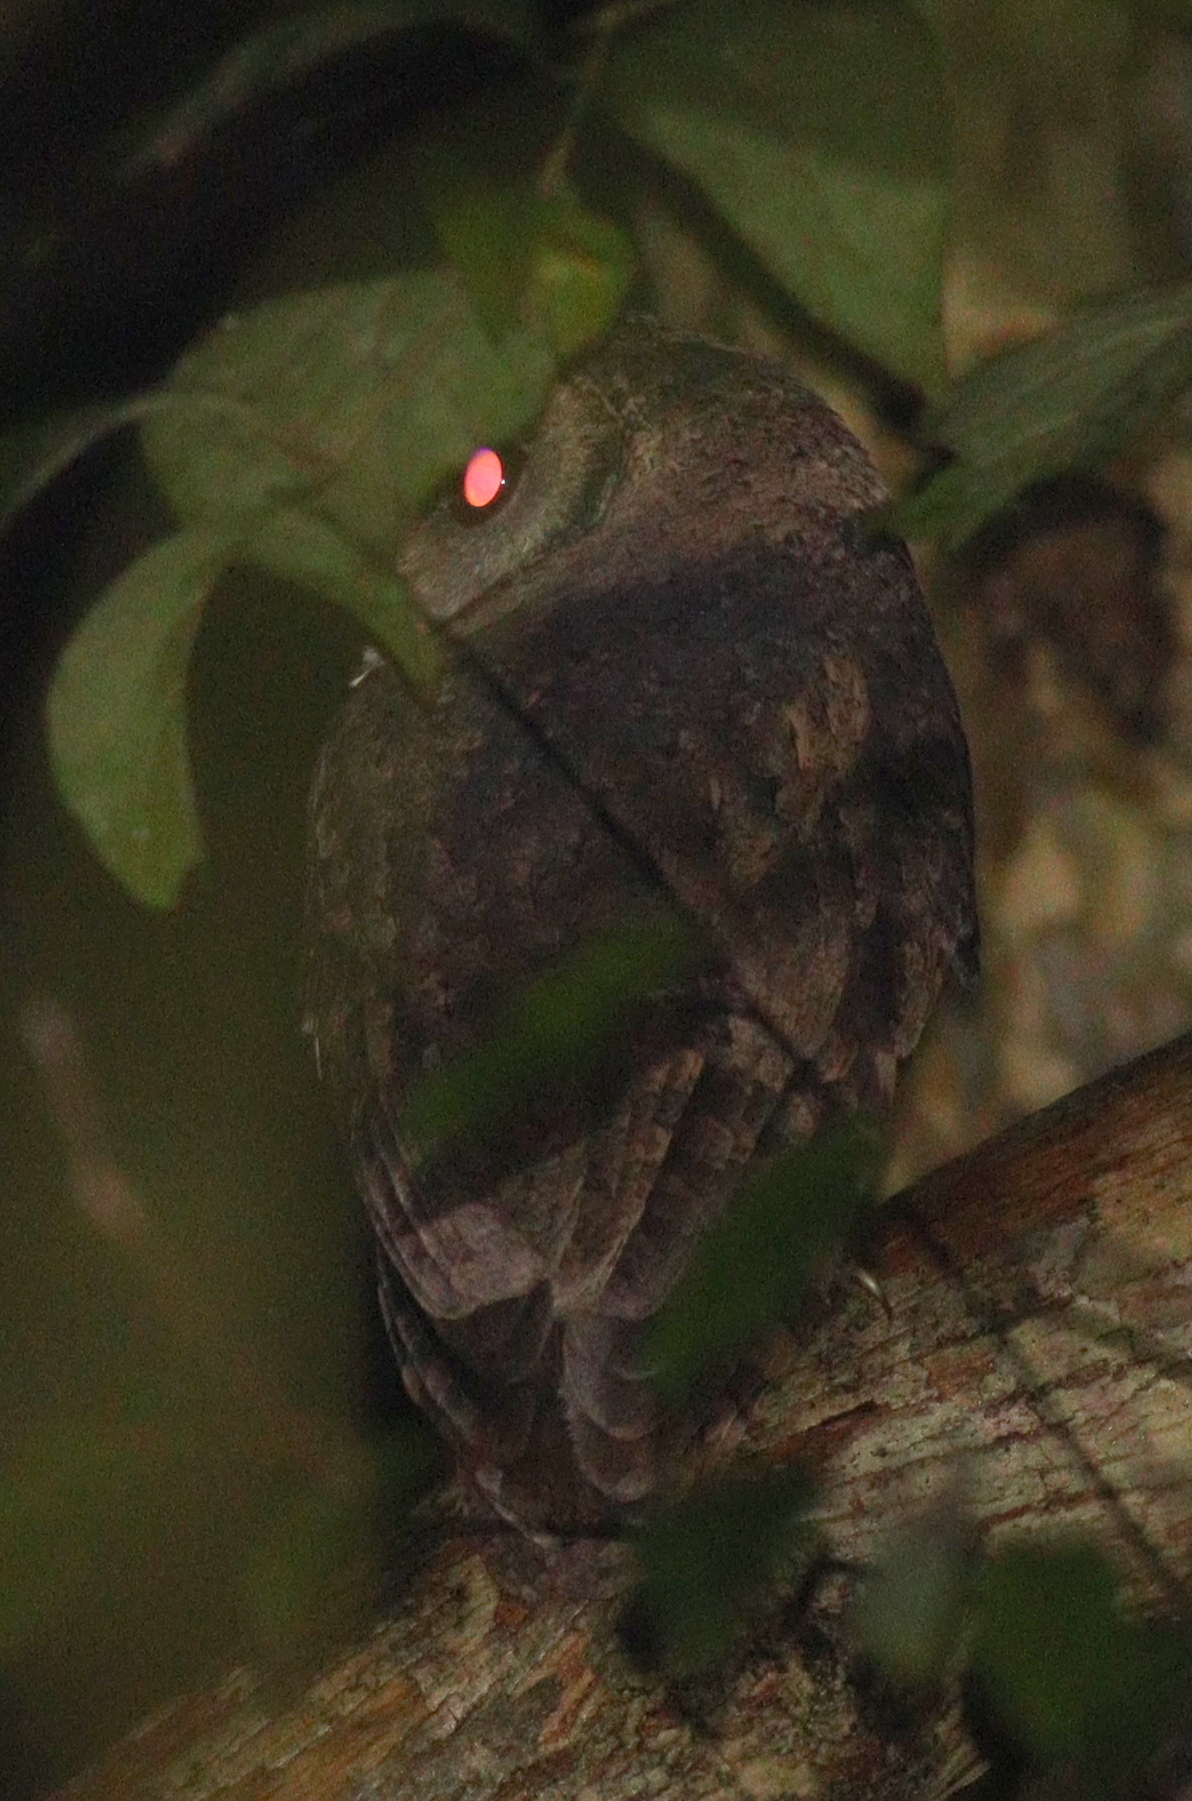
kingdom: Animalia
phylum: Chordata
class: Aves
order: Strigiformes
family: Strigidae
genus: Otus
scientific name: Otus lettia
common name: Collared scops owl
